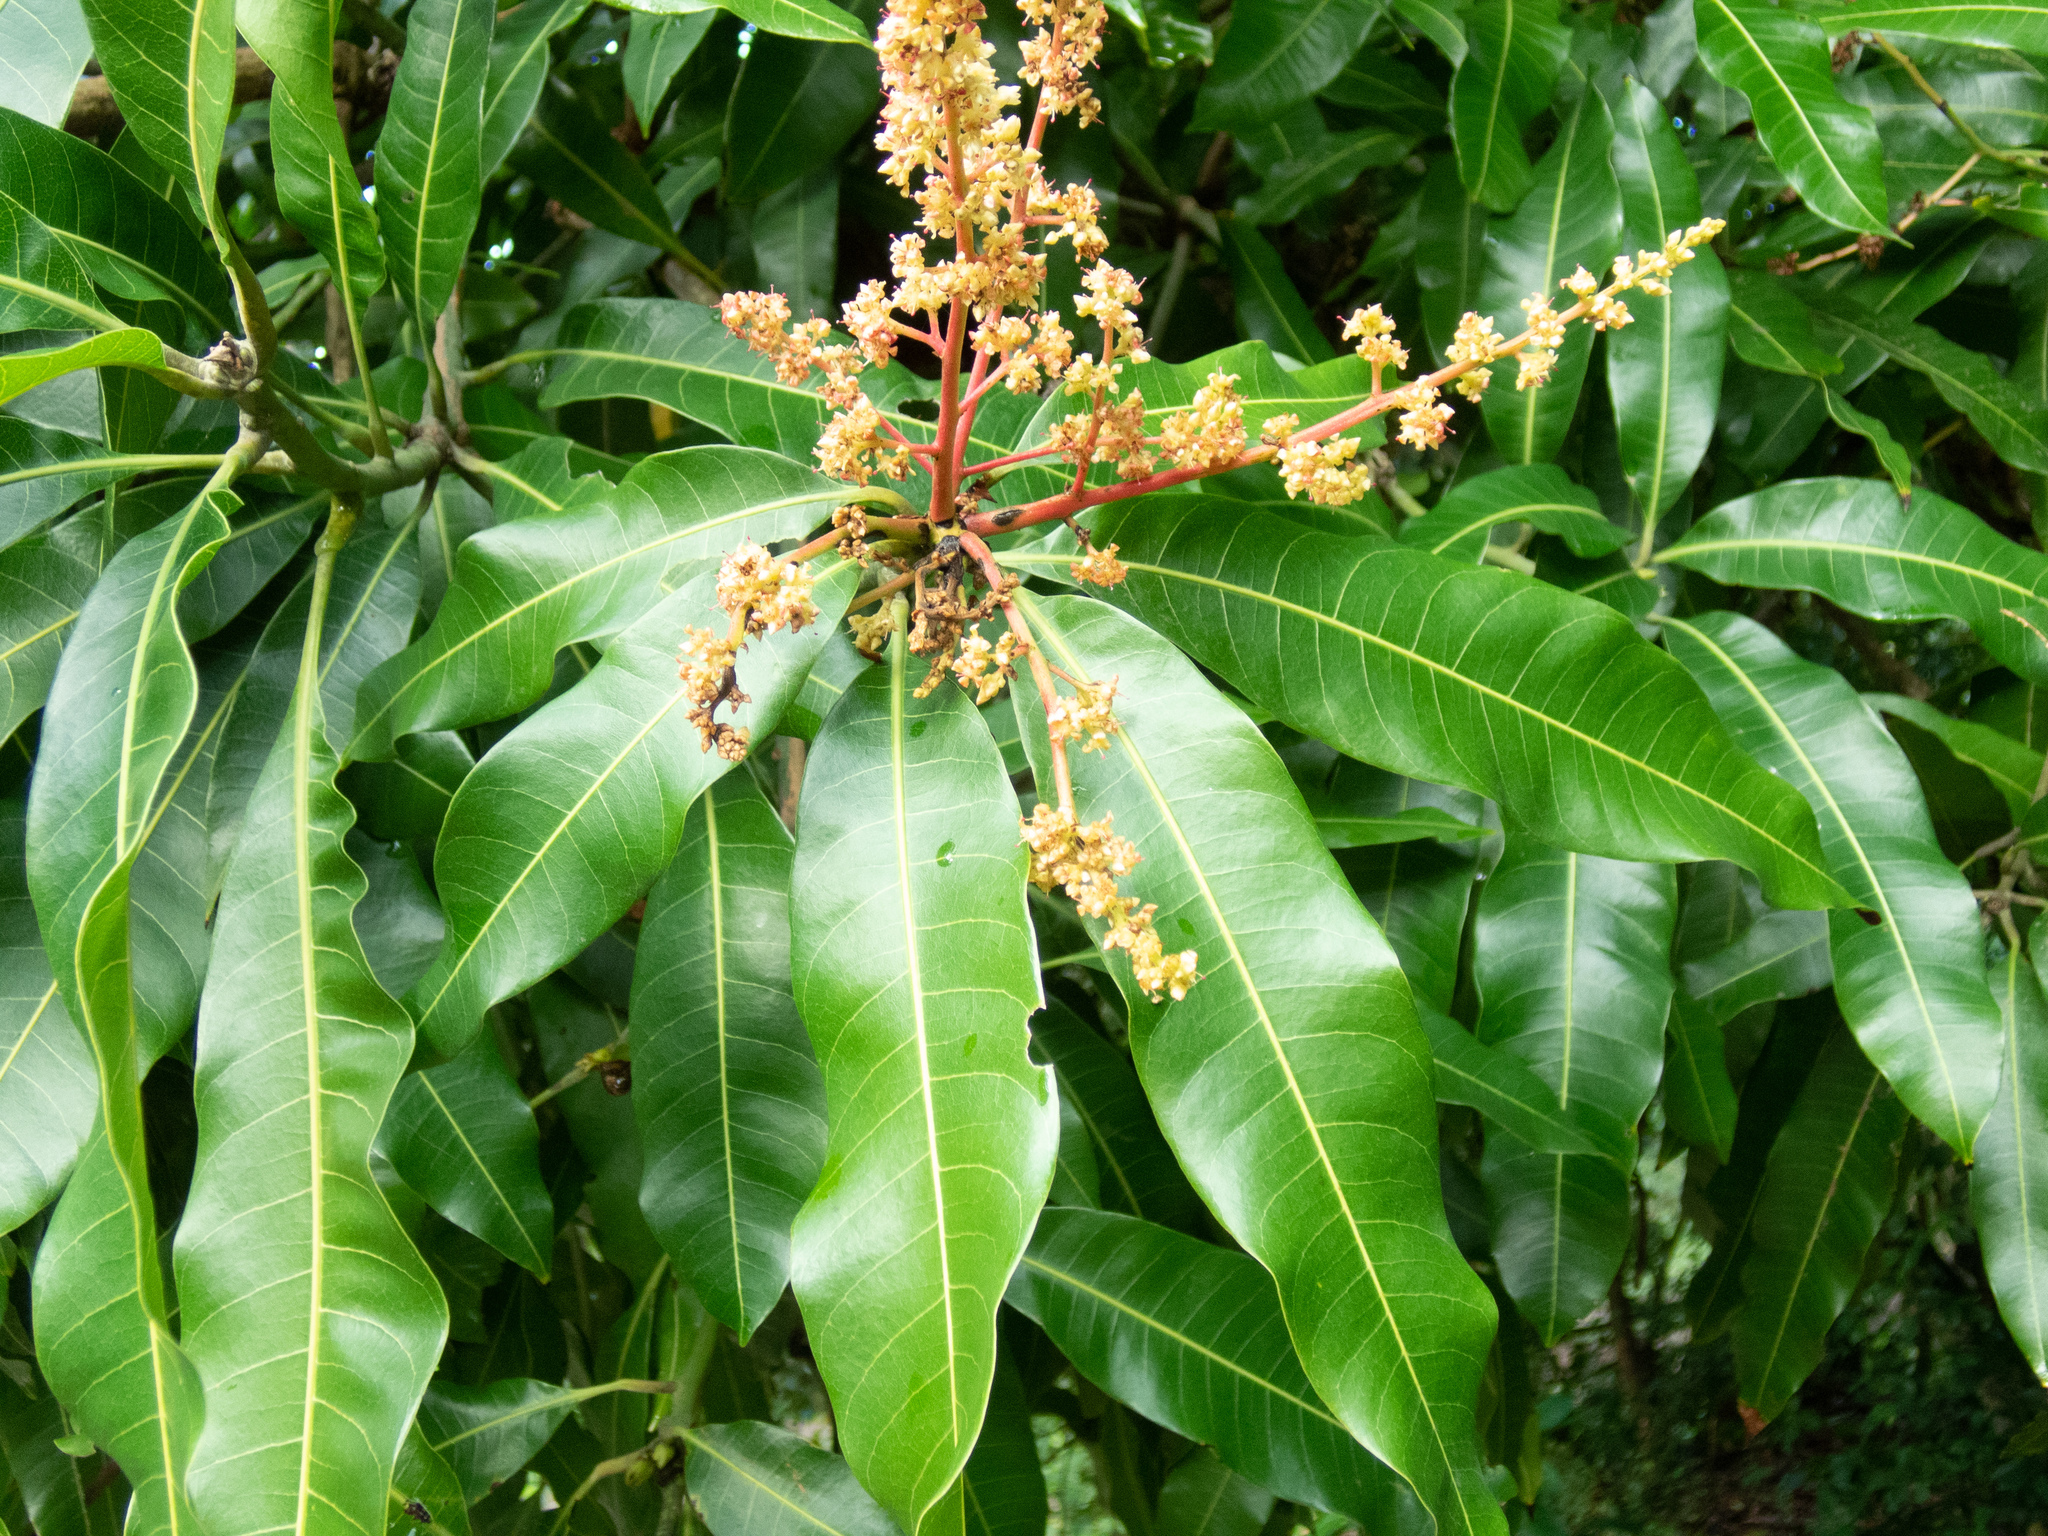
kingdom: Plantae
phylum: Tracheophyta
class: Magnoliopsida
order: Sapindales
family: Anacardiaceae
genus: Mangifera
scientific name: Mangifera indica
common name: Mango
